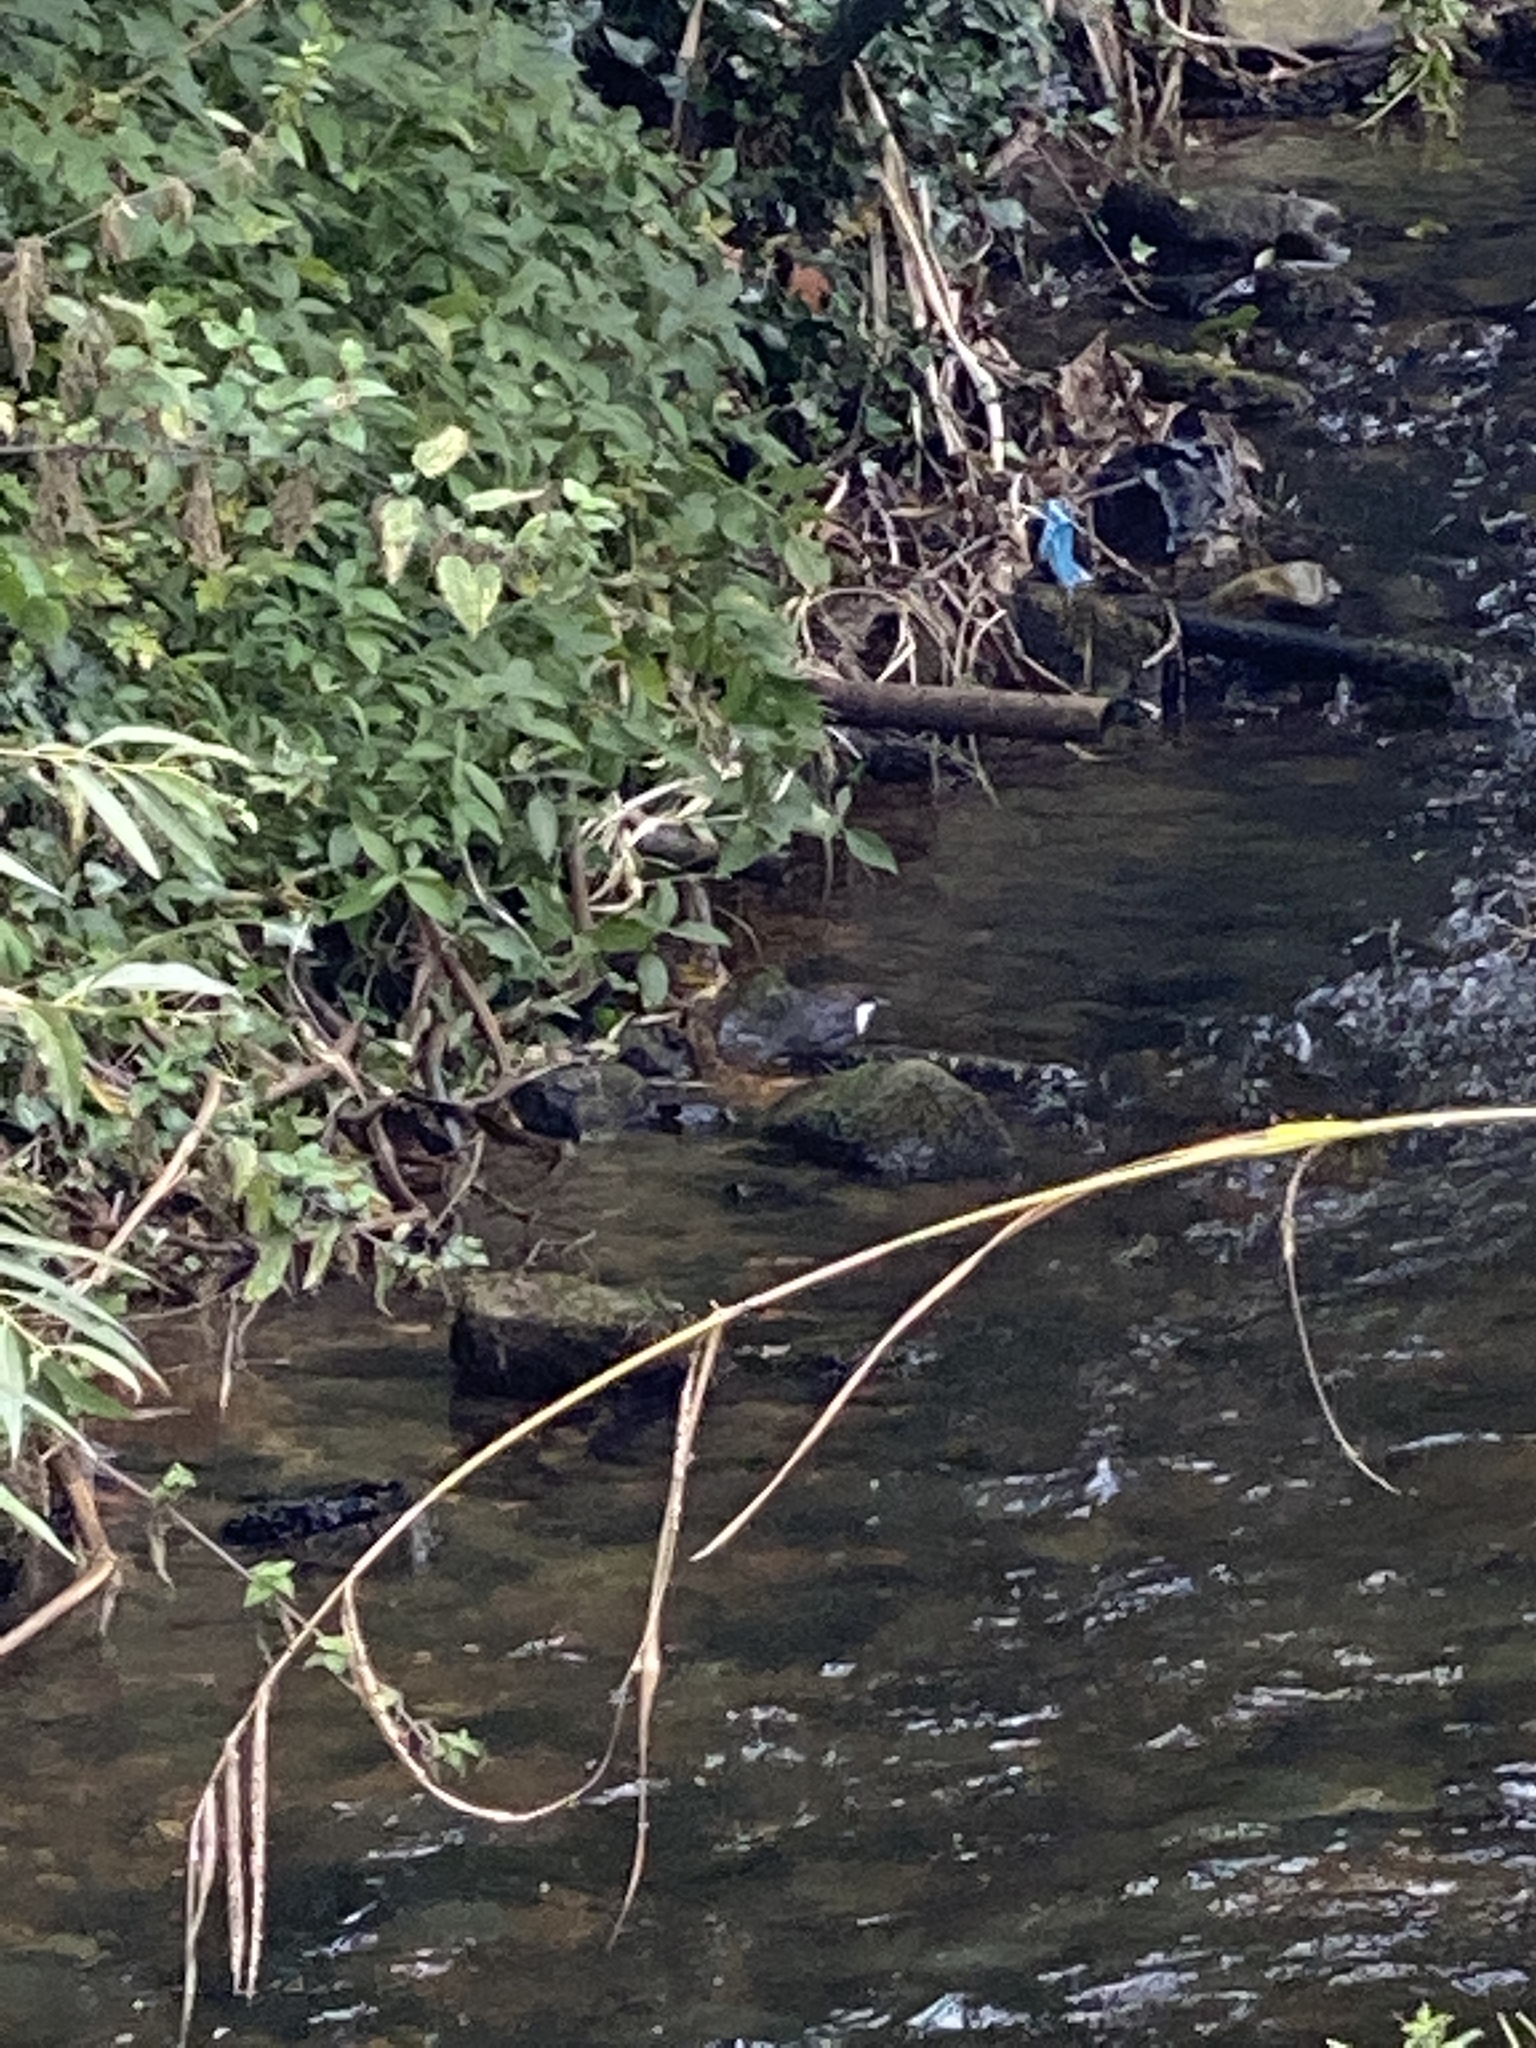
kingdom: Animalia
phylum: Chordata
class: Aves
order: Passeriformes
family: Cinclidae
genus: Cinclus
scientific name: Cinclus cinclus
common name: White-throated dipper
